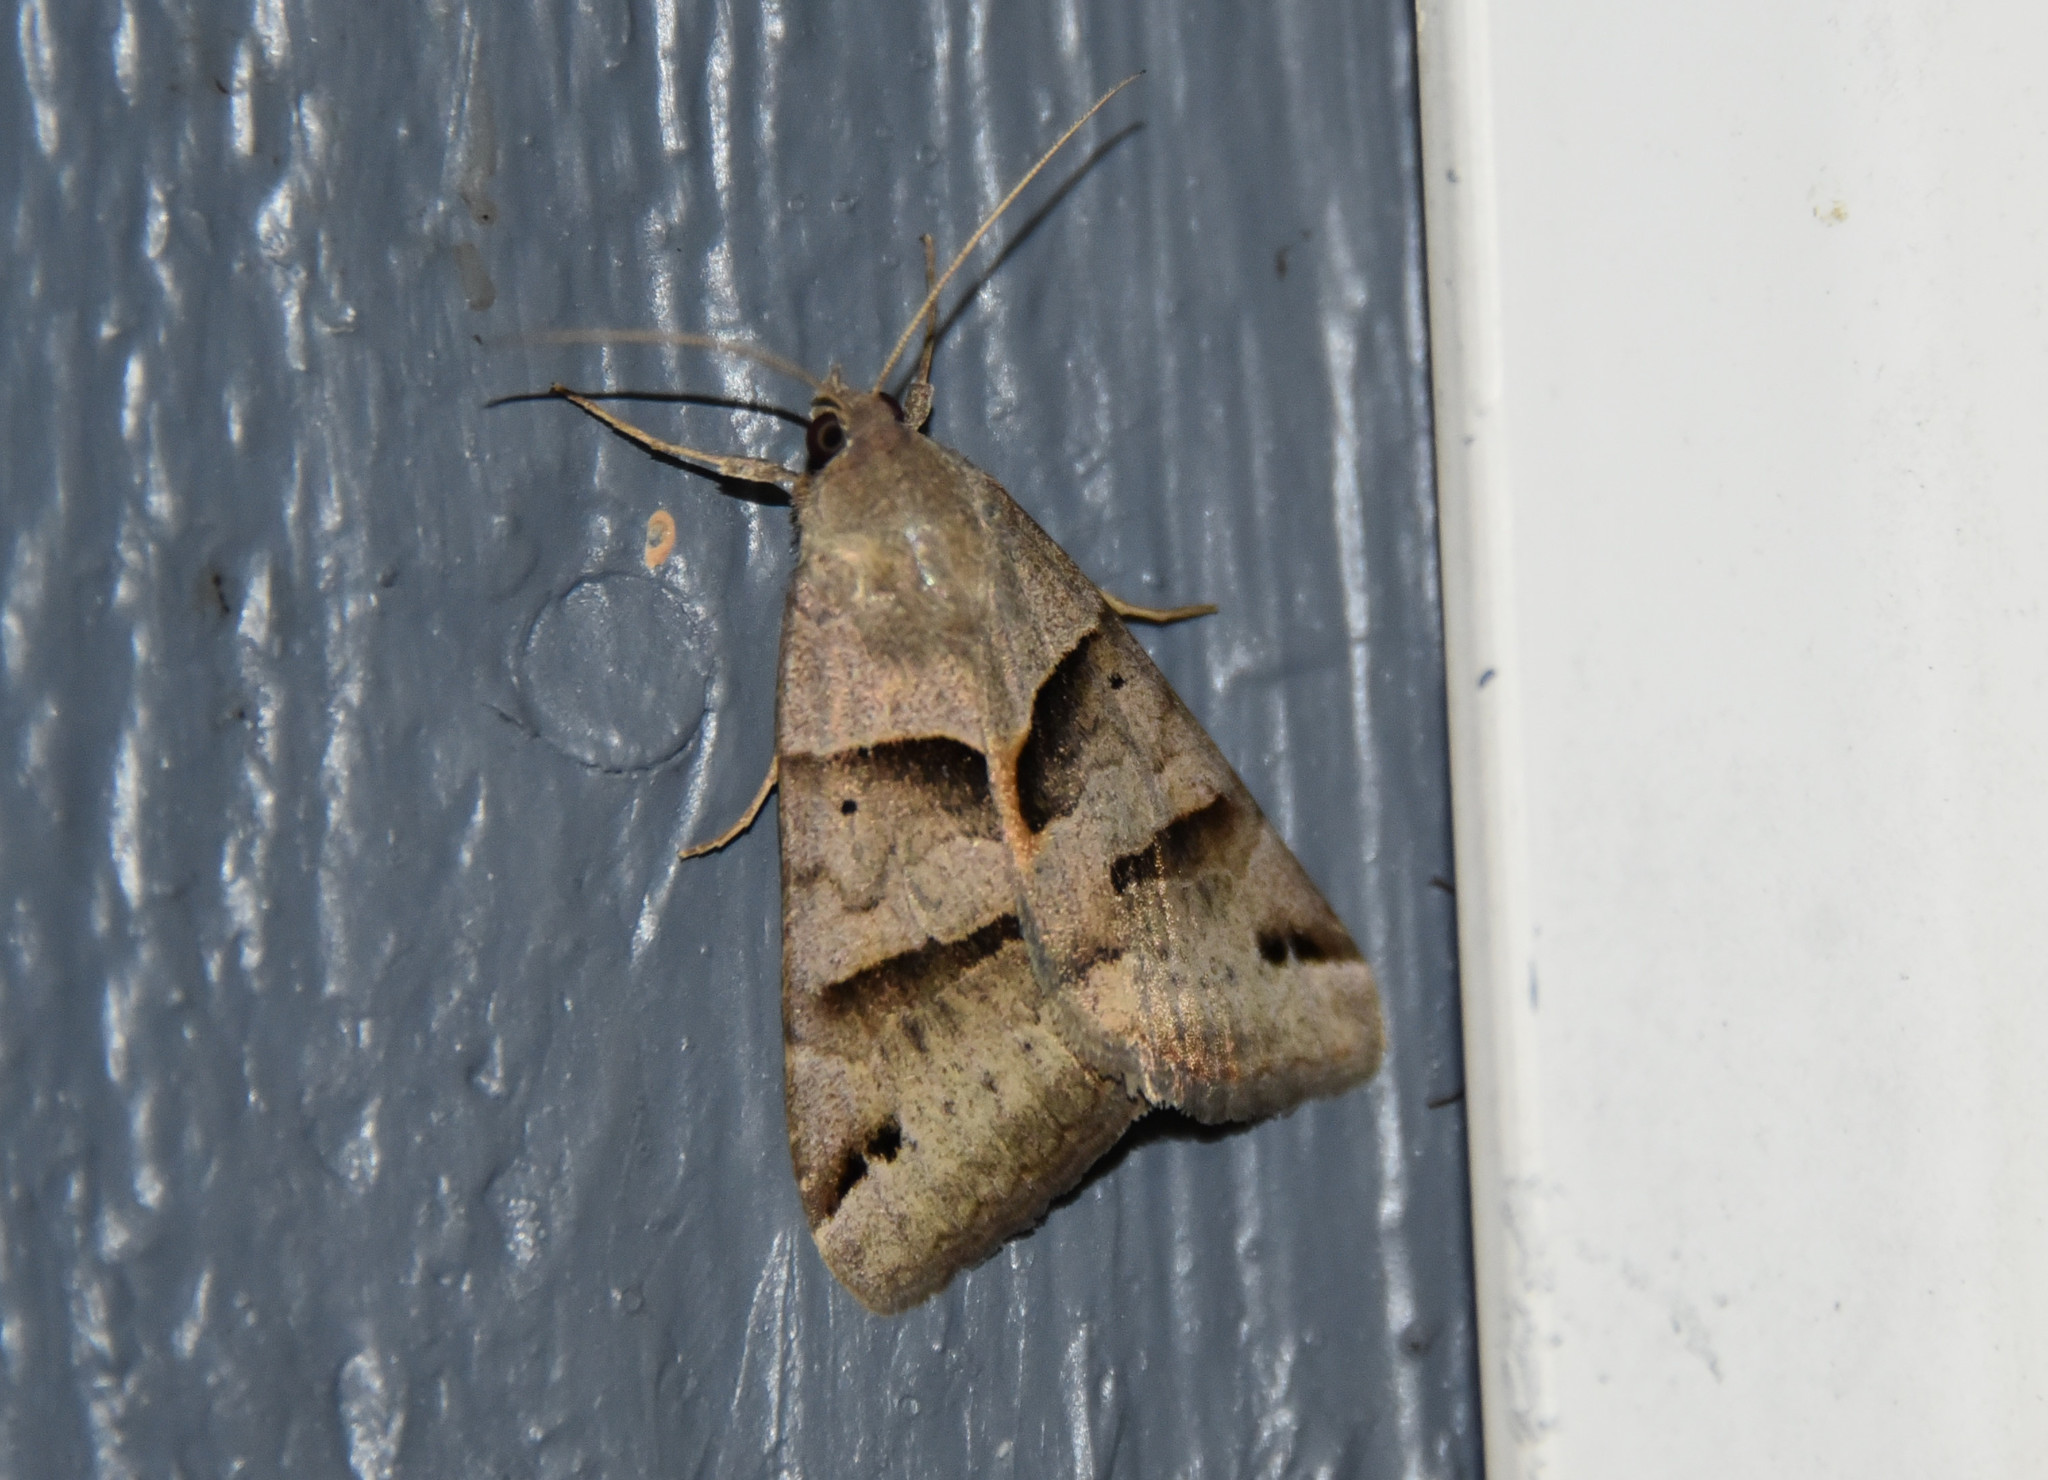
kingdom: Animalia
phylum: Arthropoda
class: Insecta
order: Lepidoptera
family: Erebidae
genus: Caenurgina
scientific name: Caenurgina erechtea
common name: Forage looper moth
